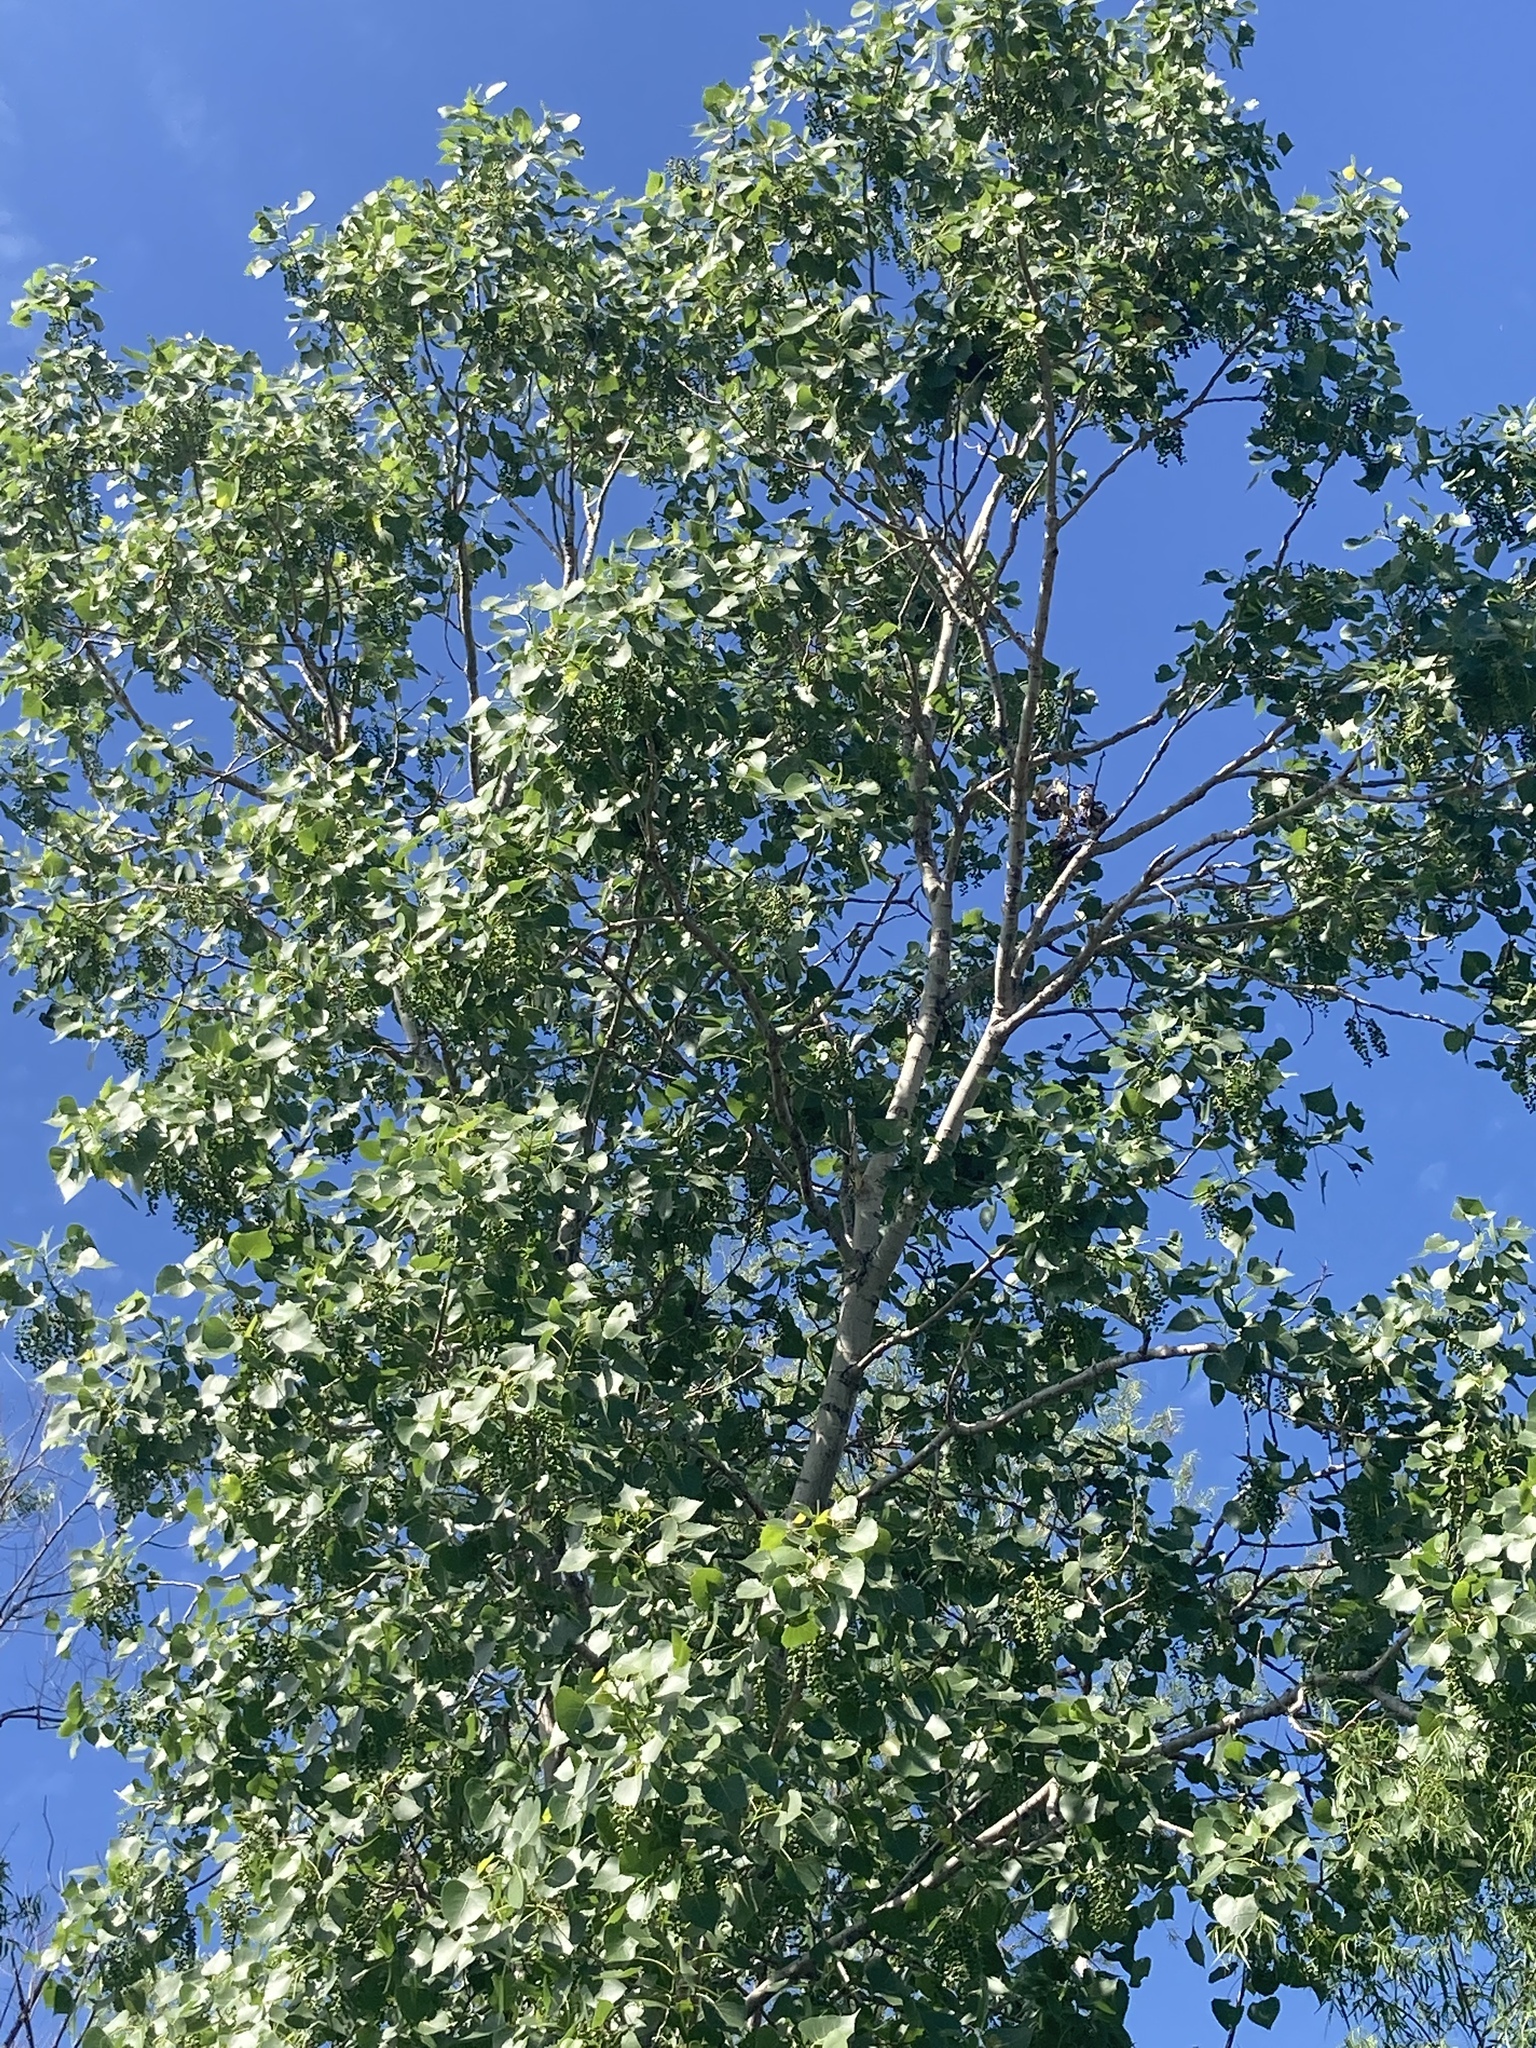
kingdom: Plantae
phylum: Tracheophyta
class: Magnoliopsida
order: Malpighiales
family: Salicaceae
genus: Populus
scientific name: Populus deltoides
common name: Eastern cottonwood
